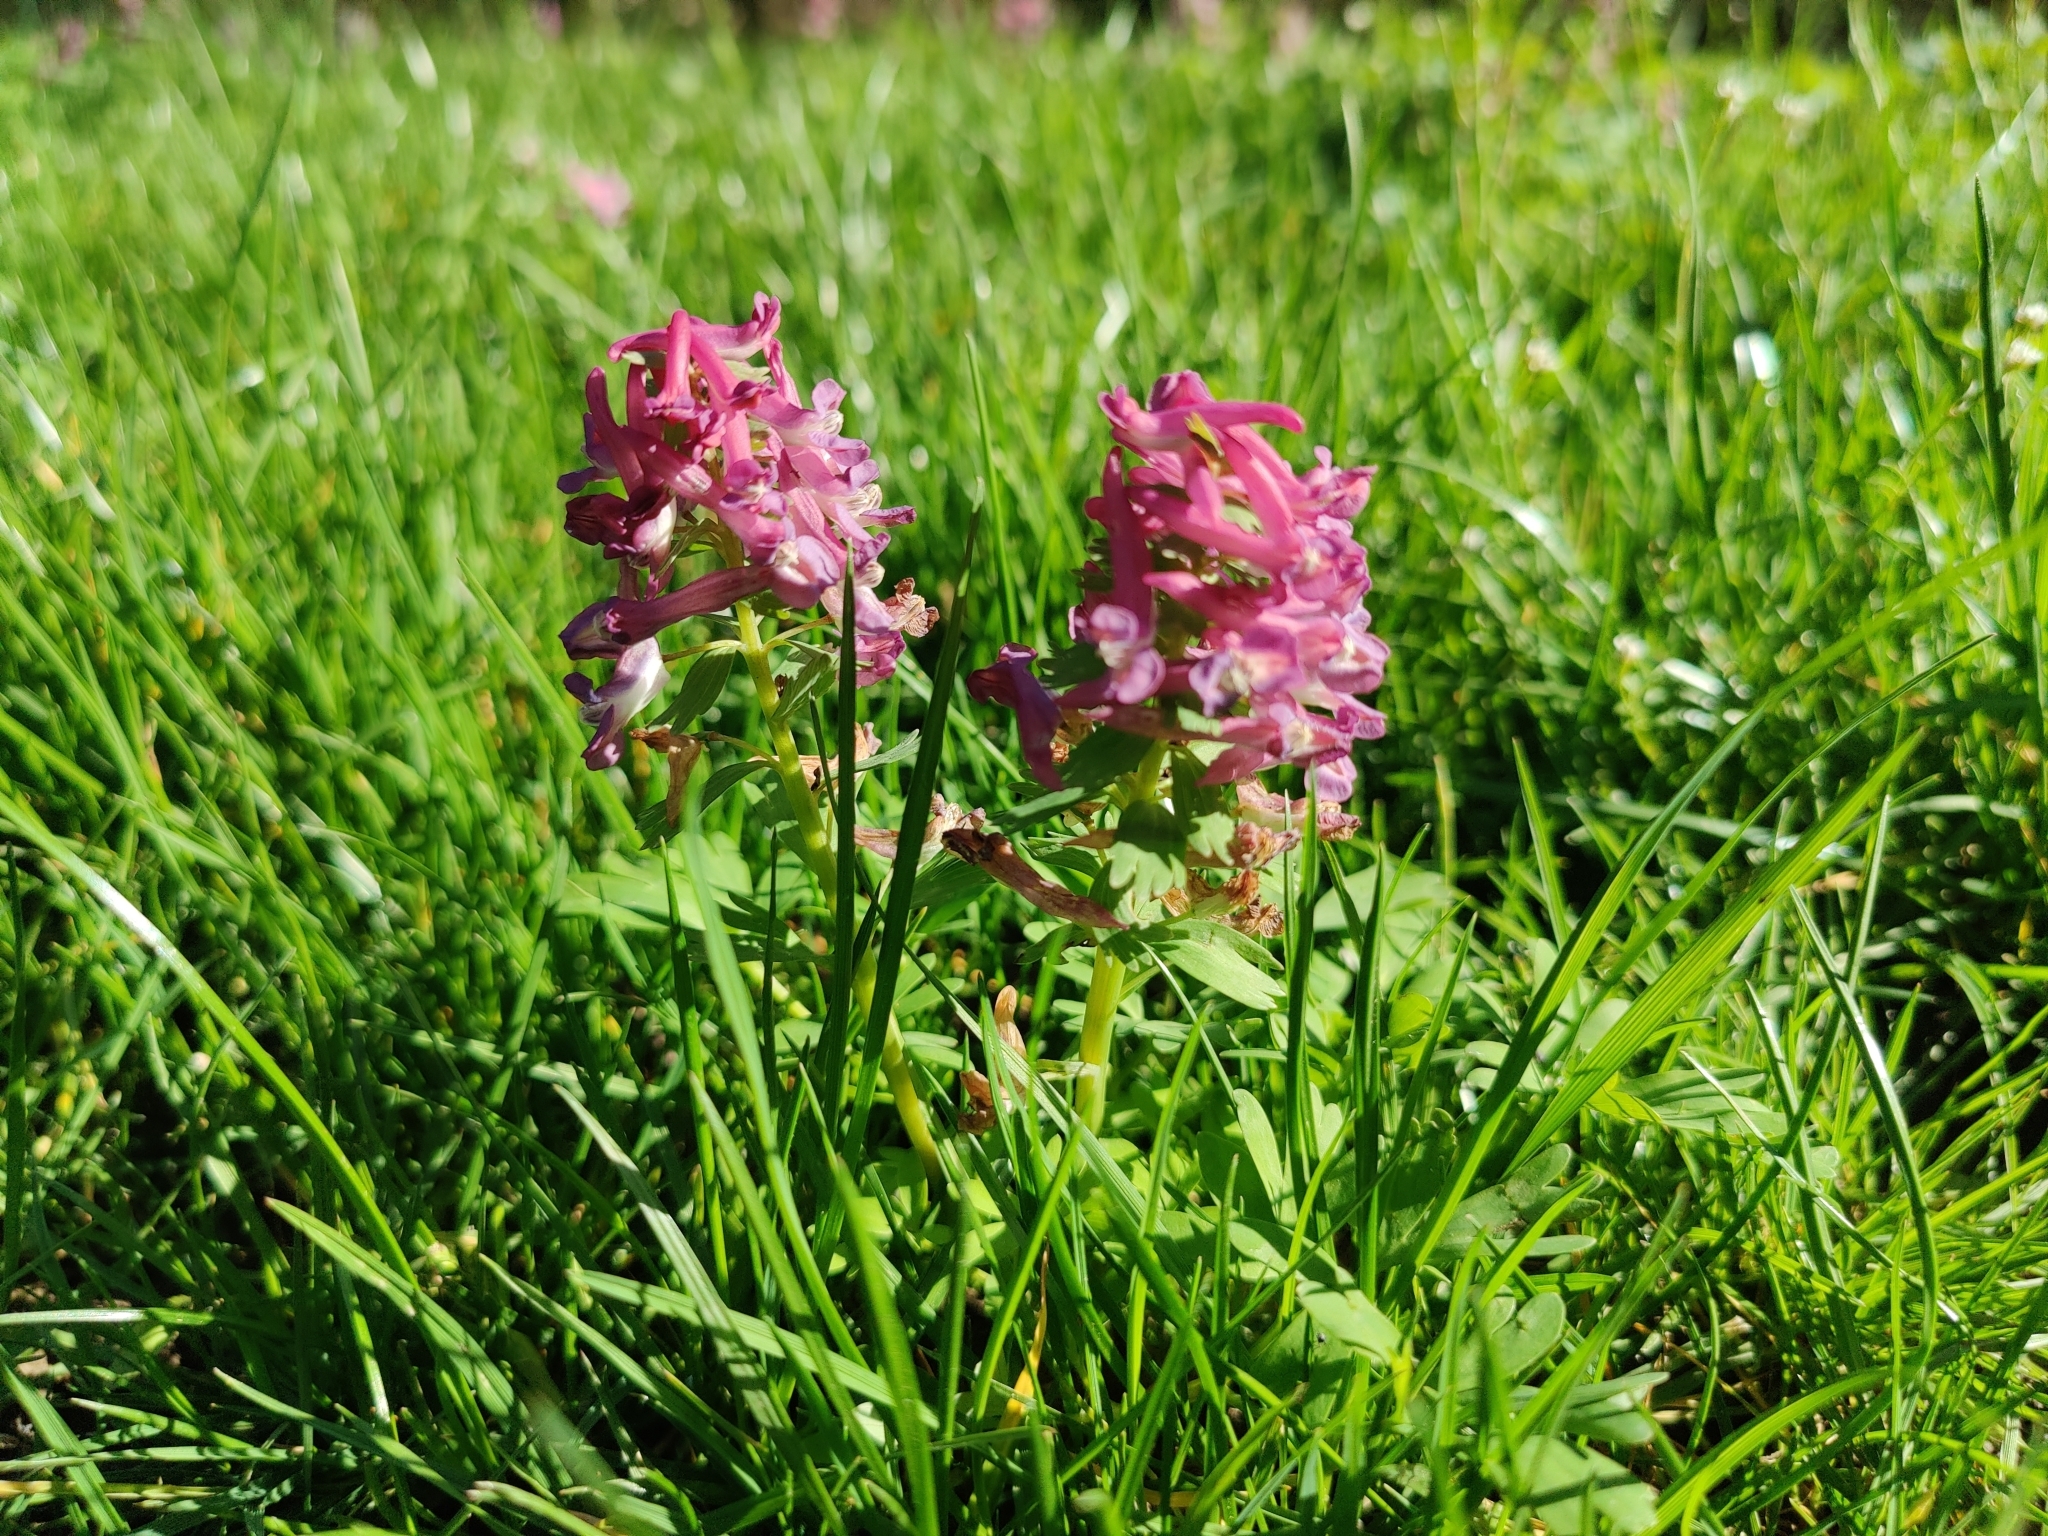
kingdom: Plantae
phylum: Tracheophyta
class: Magnoliopsida
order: Ranunculales
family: Papaveraceae
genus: Corydalis
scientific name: Corydalis solida
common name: Bird-in-a-bush
